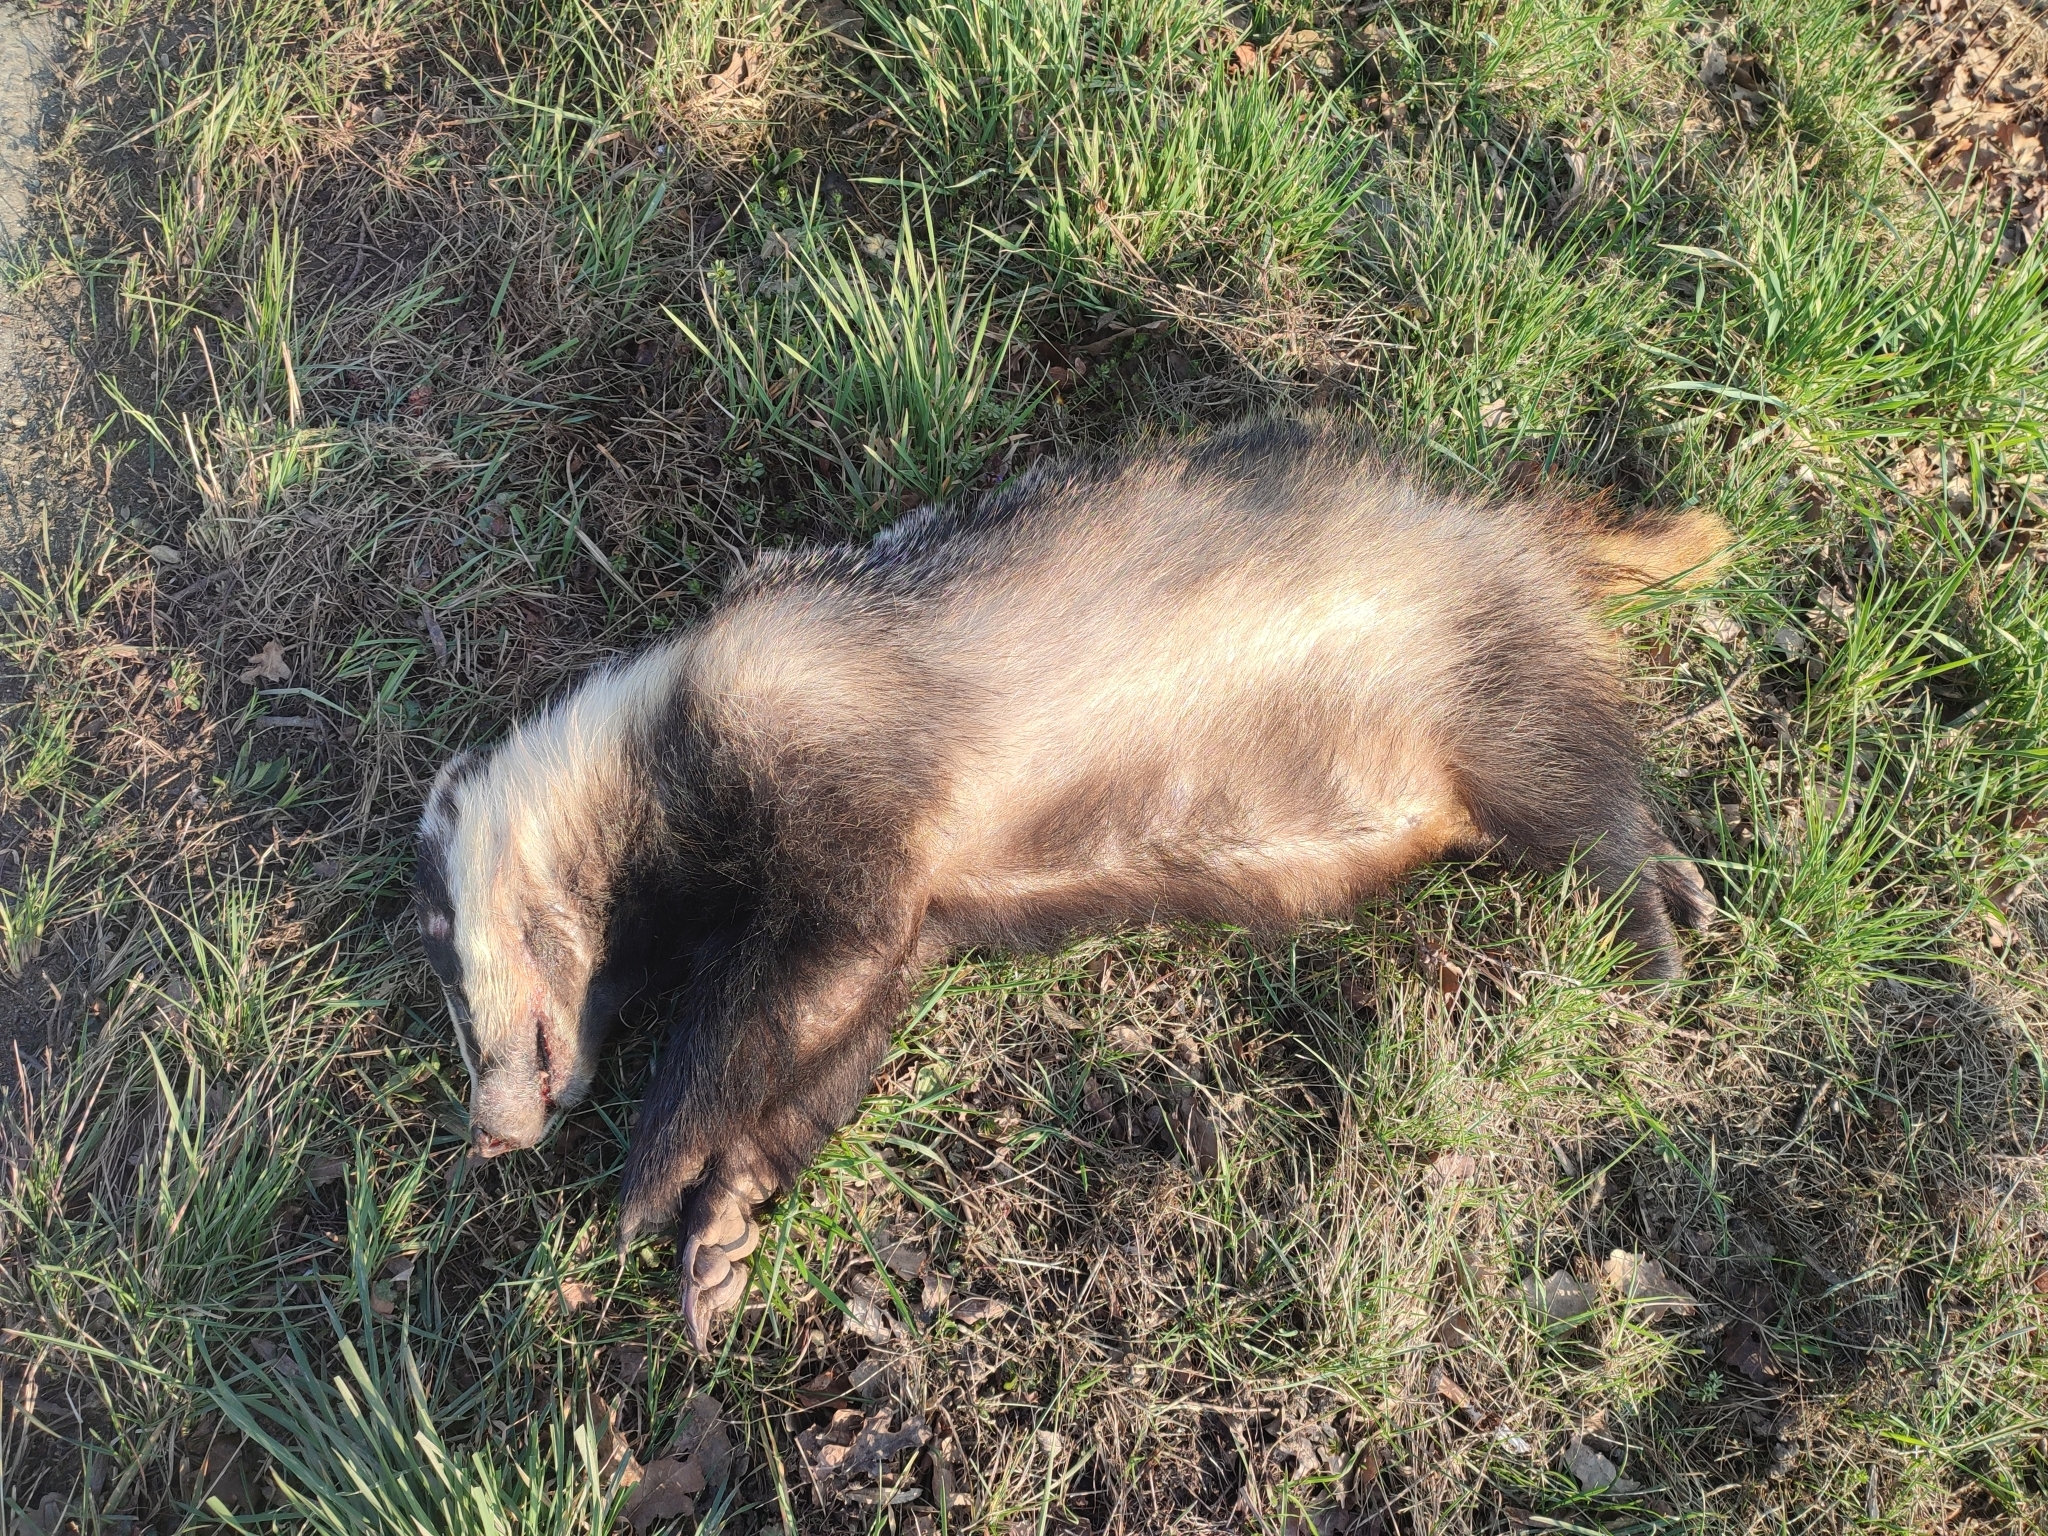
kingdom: Animalia
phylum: Chordata
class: Mammalia
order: Carnivora
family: Mustelidae
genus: Meles
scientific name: Meles meles
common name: Eurasian badger
